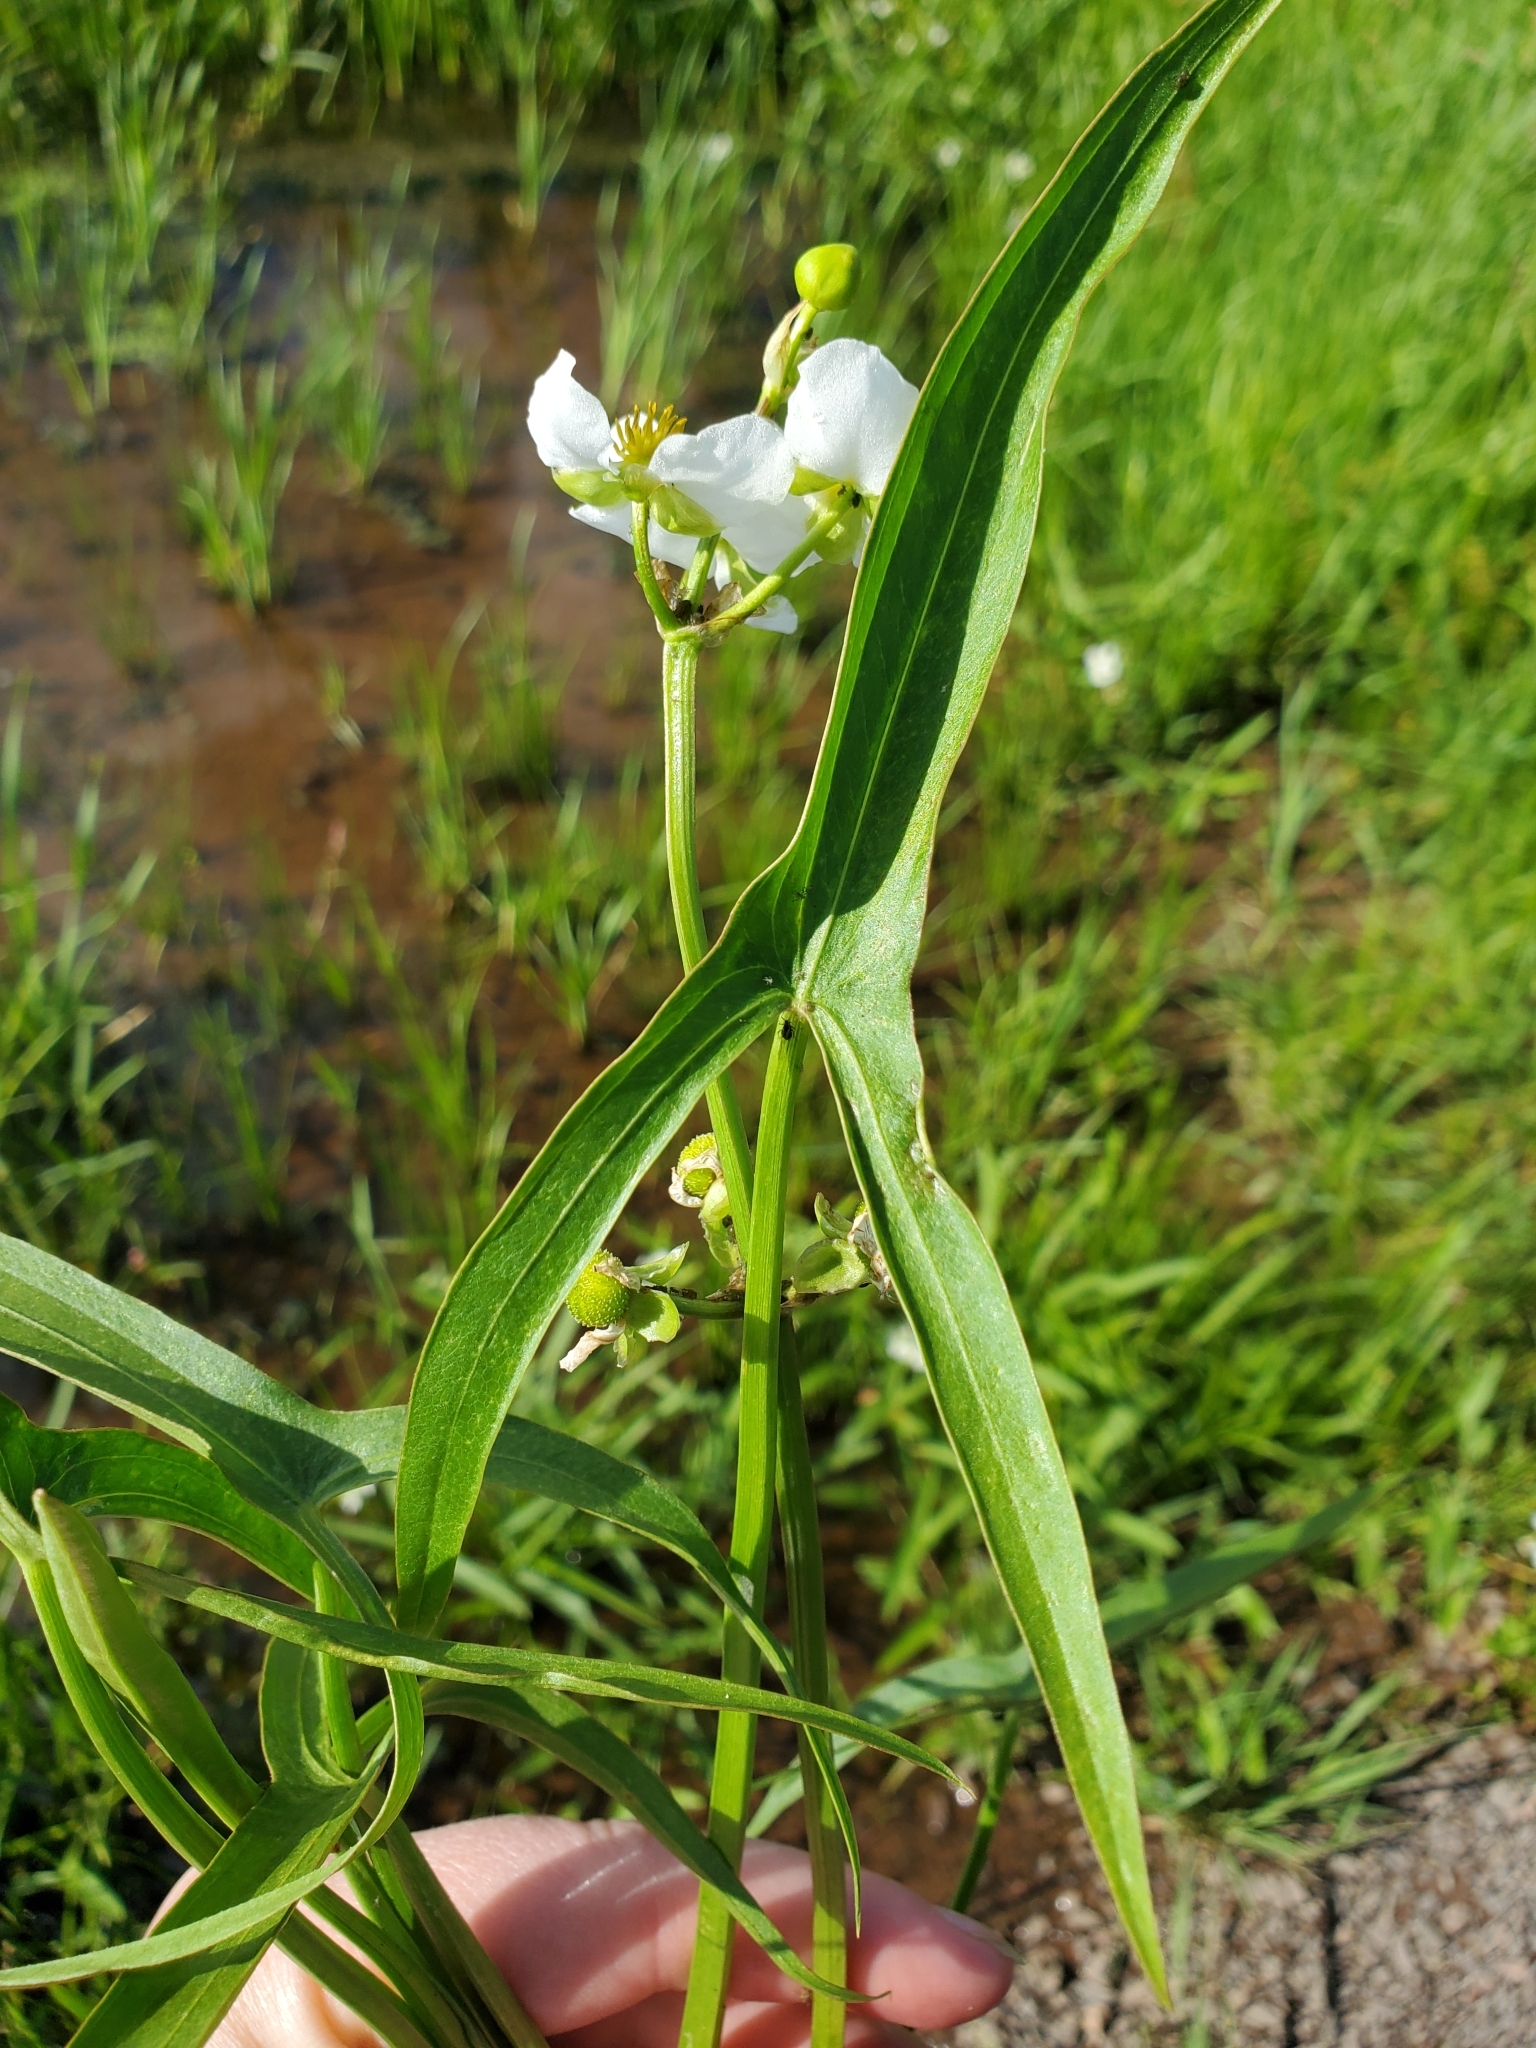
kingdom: Plantae
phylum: Tracheophyta
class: Liliopsida
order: Alismatales
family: Alismataceae
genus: Sagittaria
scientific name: Sagittaria latifolia
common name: Duck-potato
